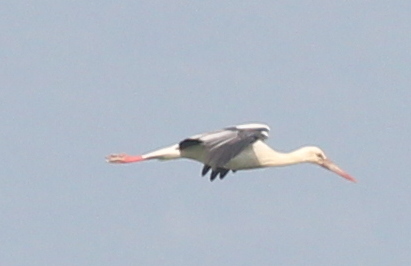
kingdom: Animalia
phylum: Chordata
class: Aves
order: Ciconiiformes
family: Ciconiidae
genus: Ciconia
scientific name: Ciconia ciconia
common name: White stork
